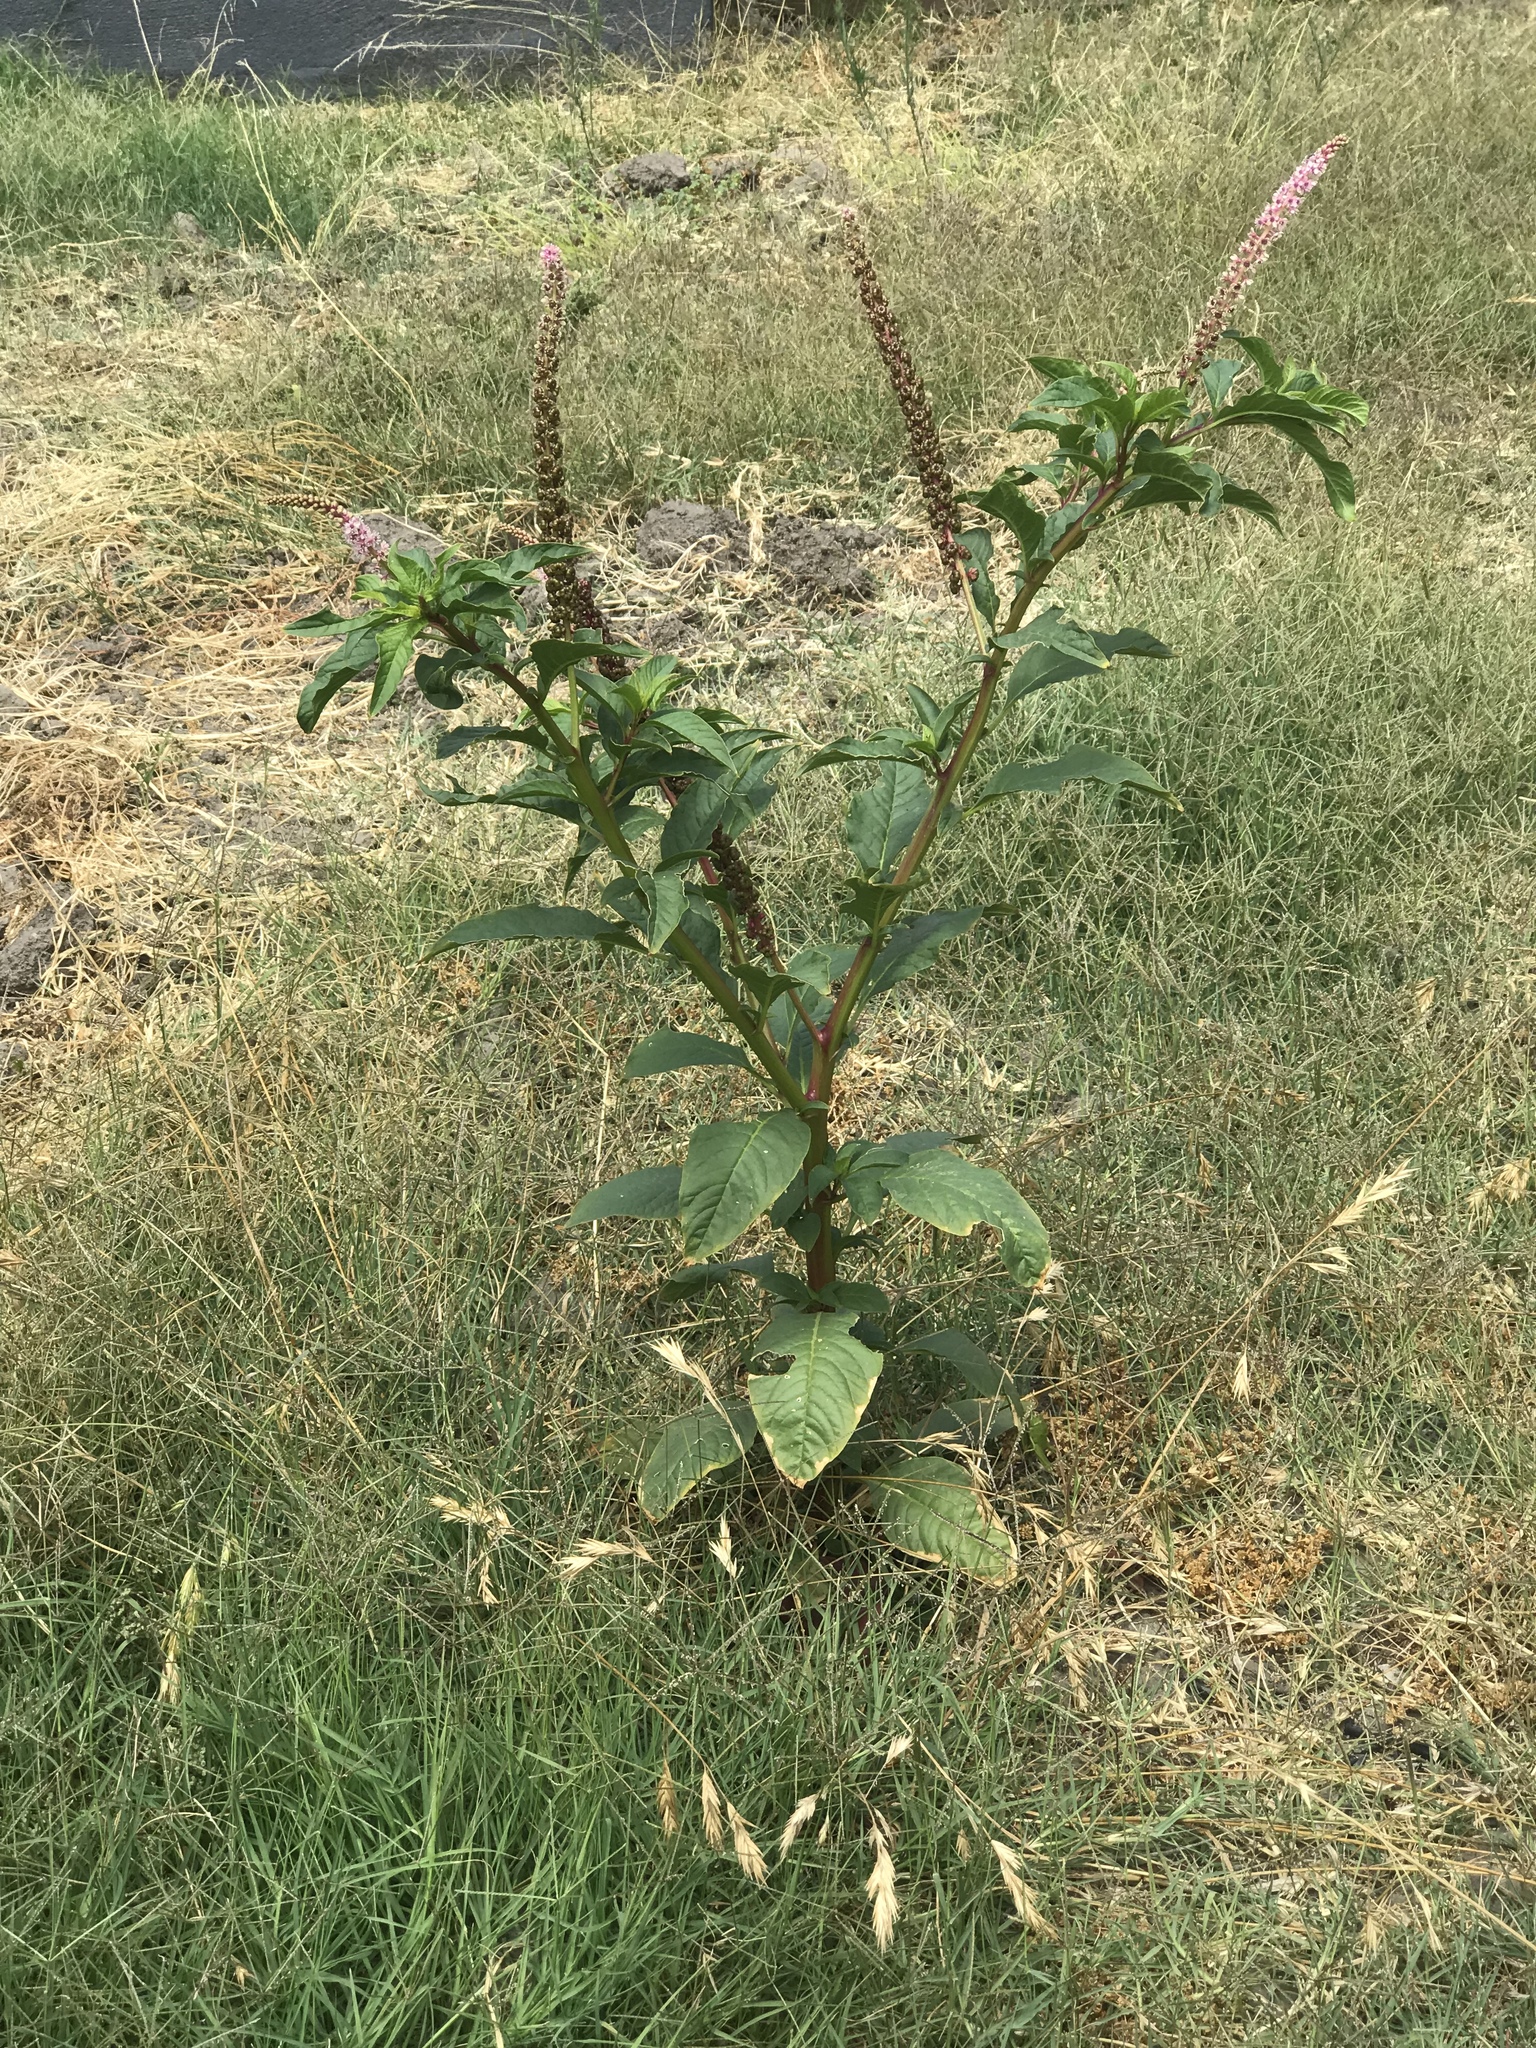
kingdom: Plantae
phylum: Tracheophyta
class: Magnoliopsida
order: Caryophyllales
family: Phytolaccaceae
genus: Phytolacca
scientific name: Phytolacca icosandra
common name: Button pokeweed
